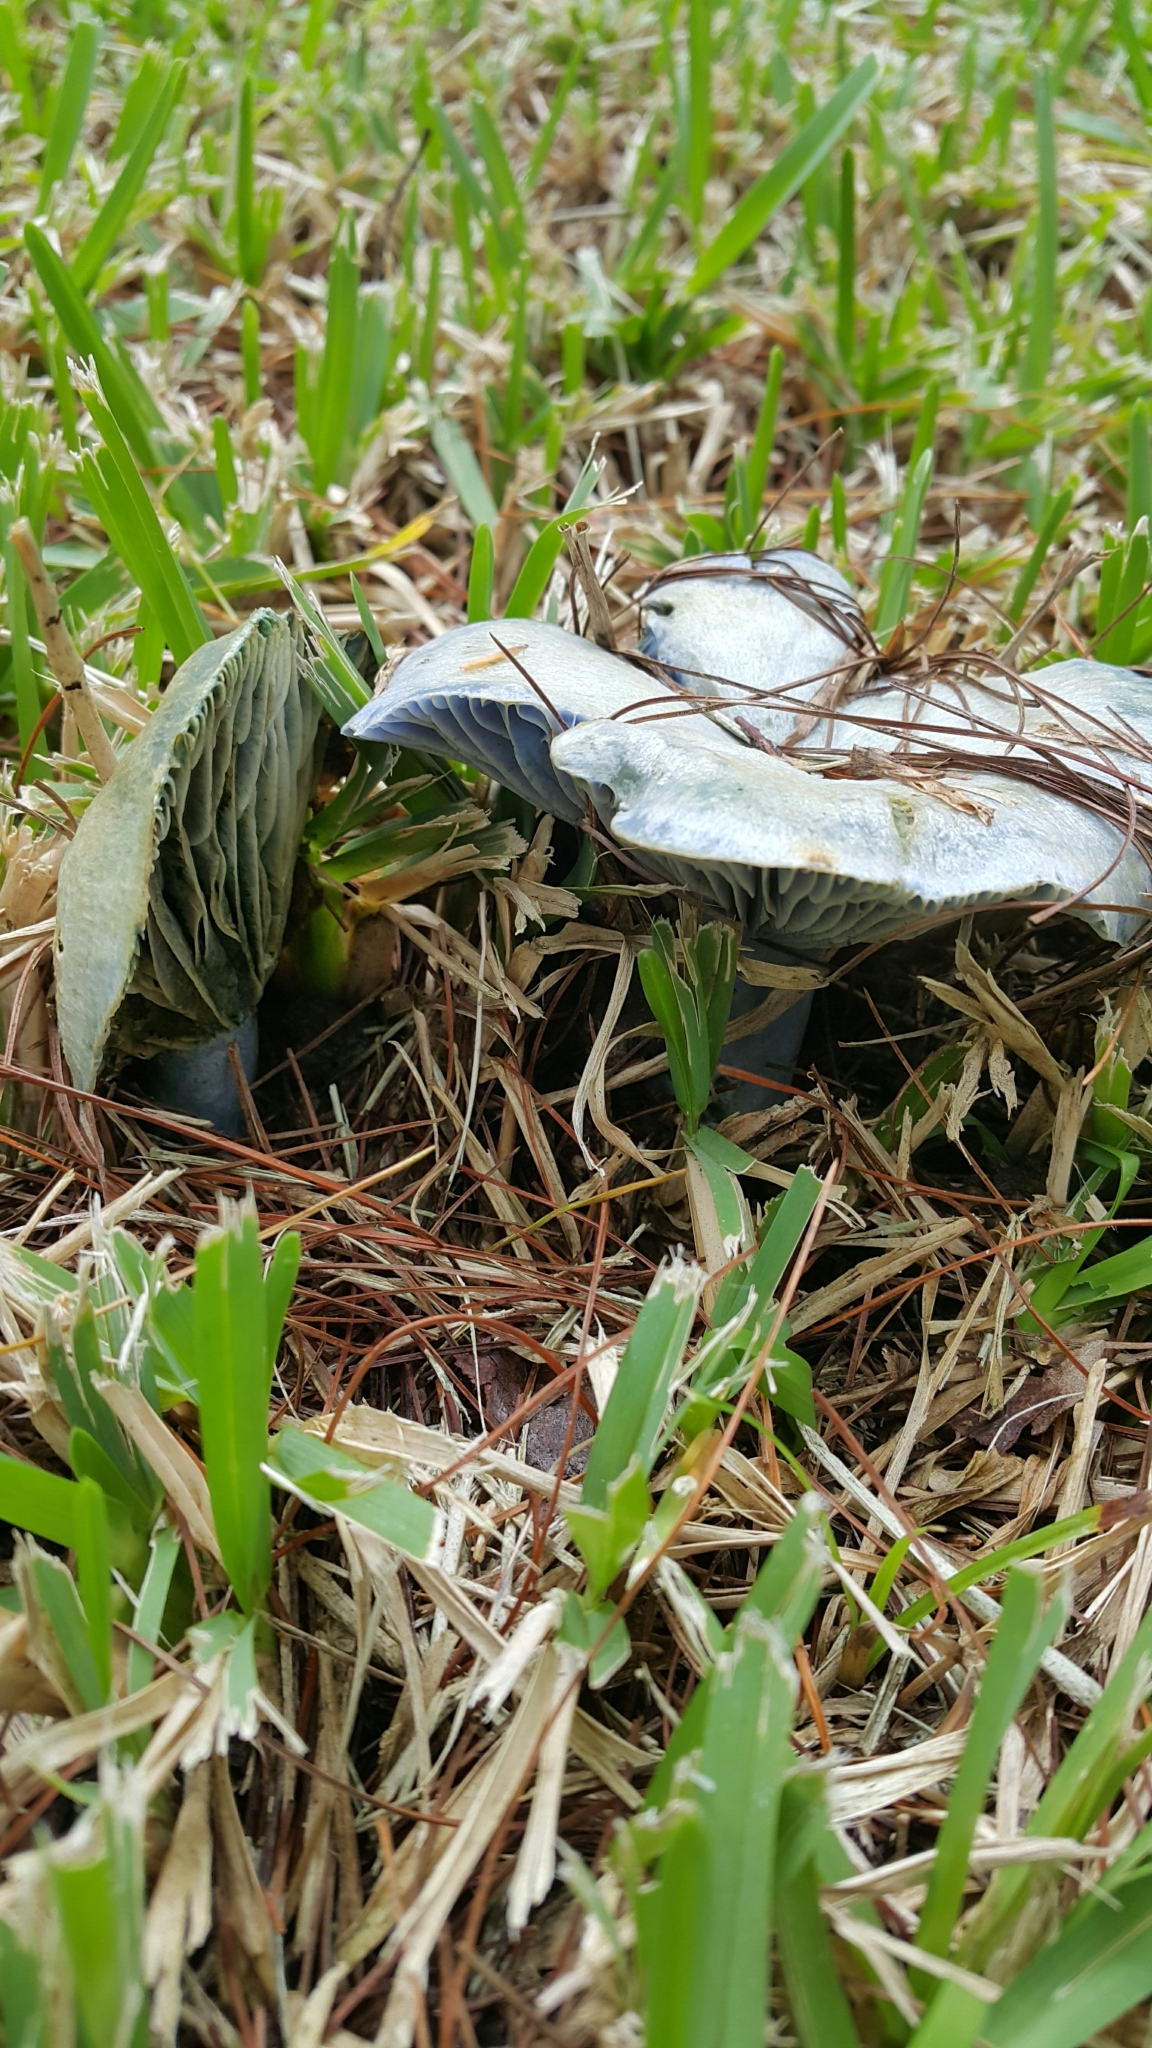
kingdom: Fungi
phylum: Basidiomycota
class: Agaricomycetes
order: Russulales
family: Russulaceae
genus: Lactarius
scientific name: Lactarius indigo
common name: Indigo milk cap
